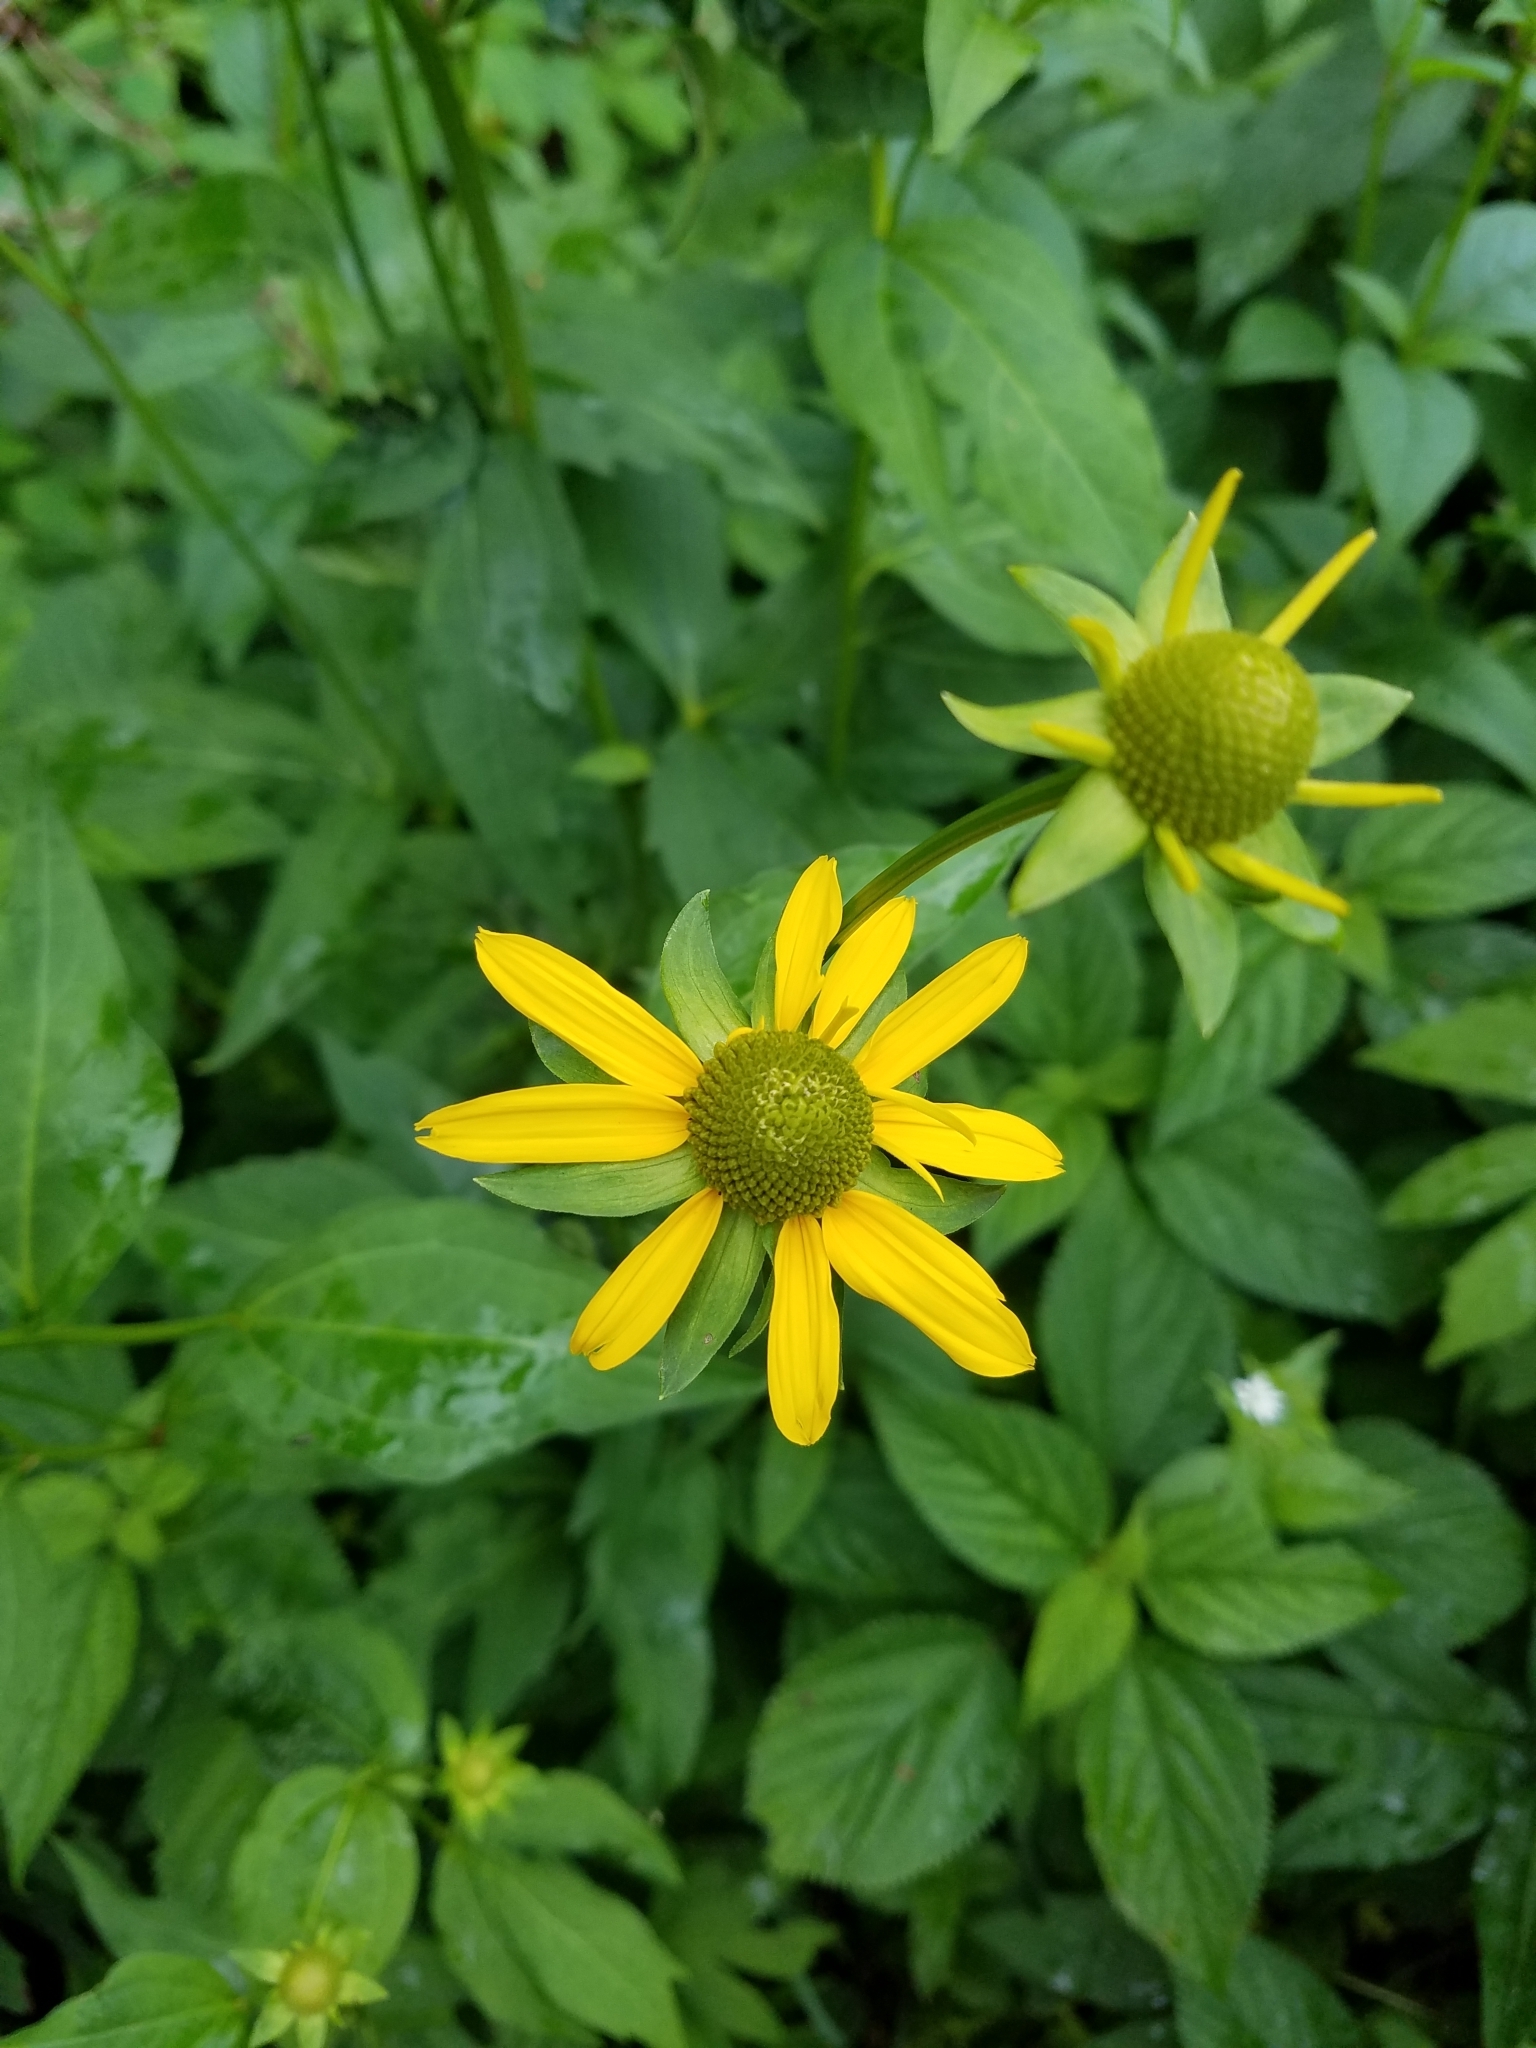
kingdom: Plantae
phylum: Tracheophyta
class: Magnoliopsida
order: Asterales
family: Asteraceae
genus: Rudbeckia
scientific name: Rudbeckia laciniata
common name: Coneflower
